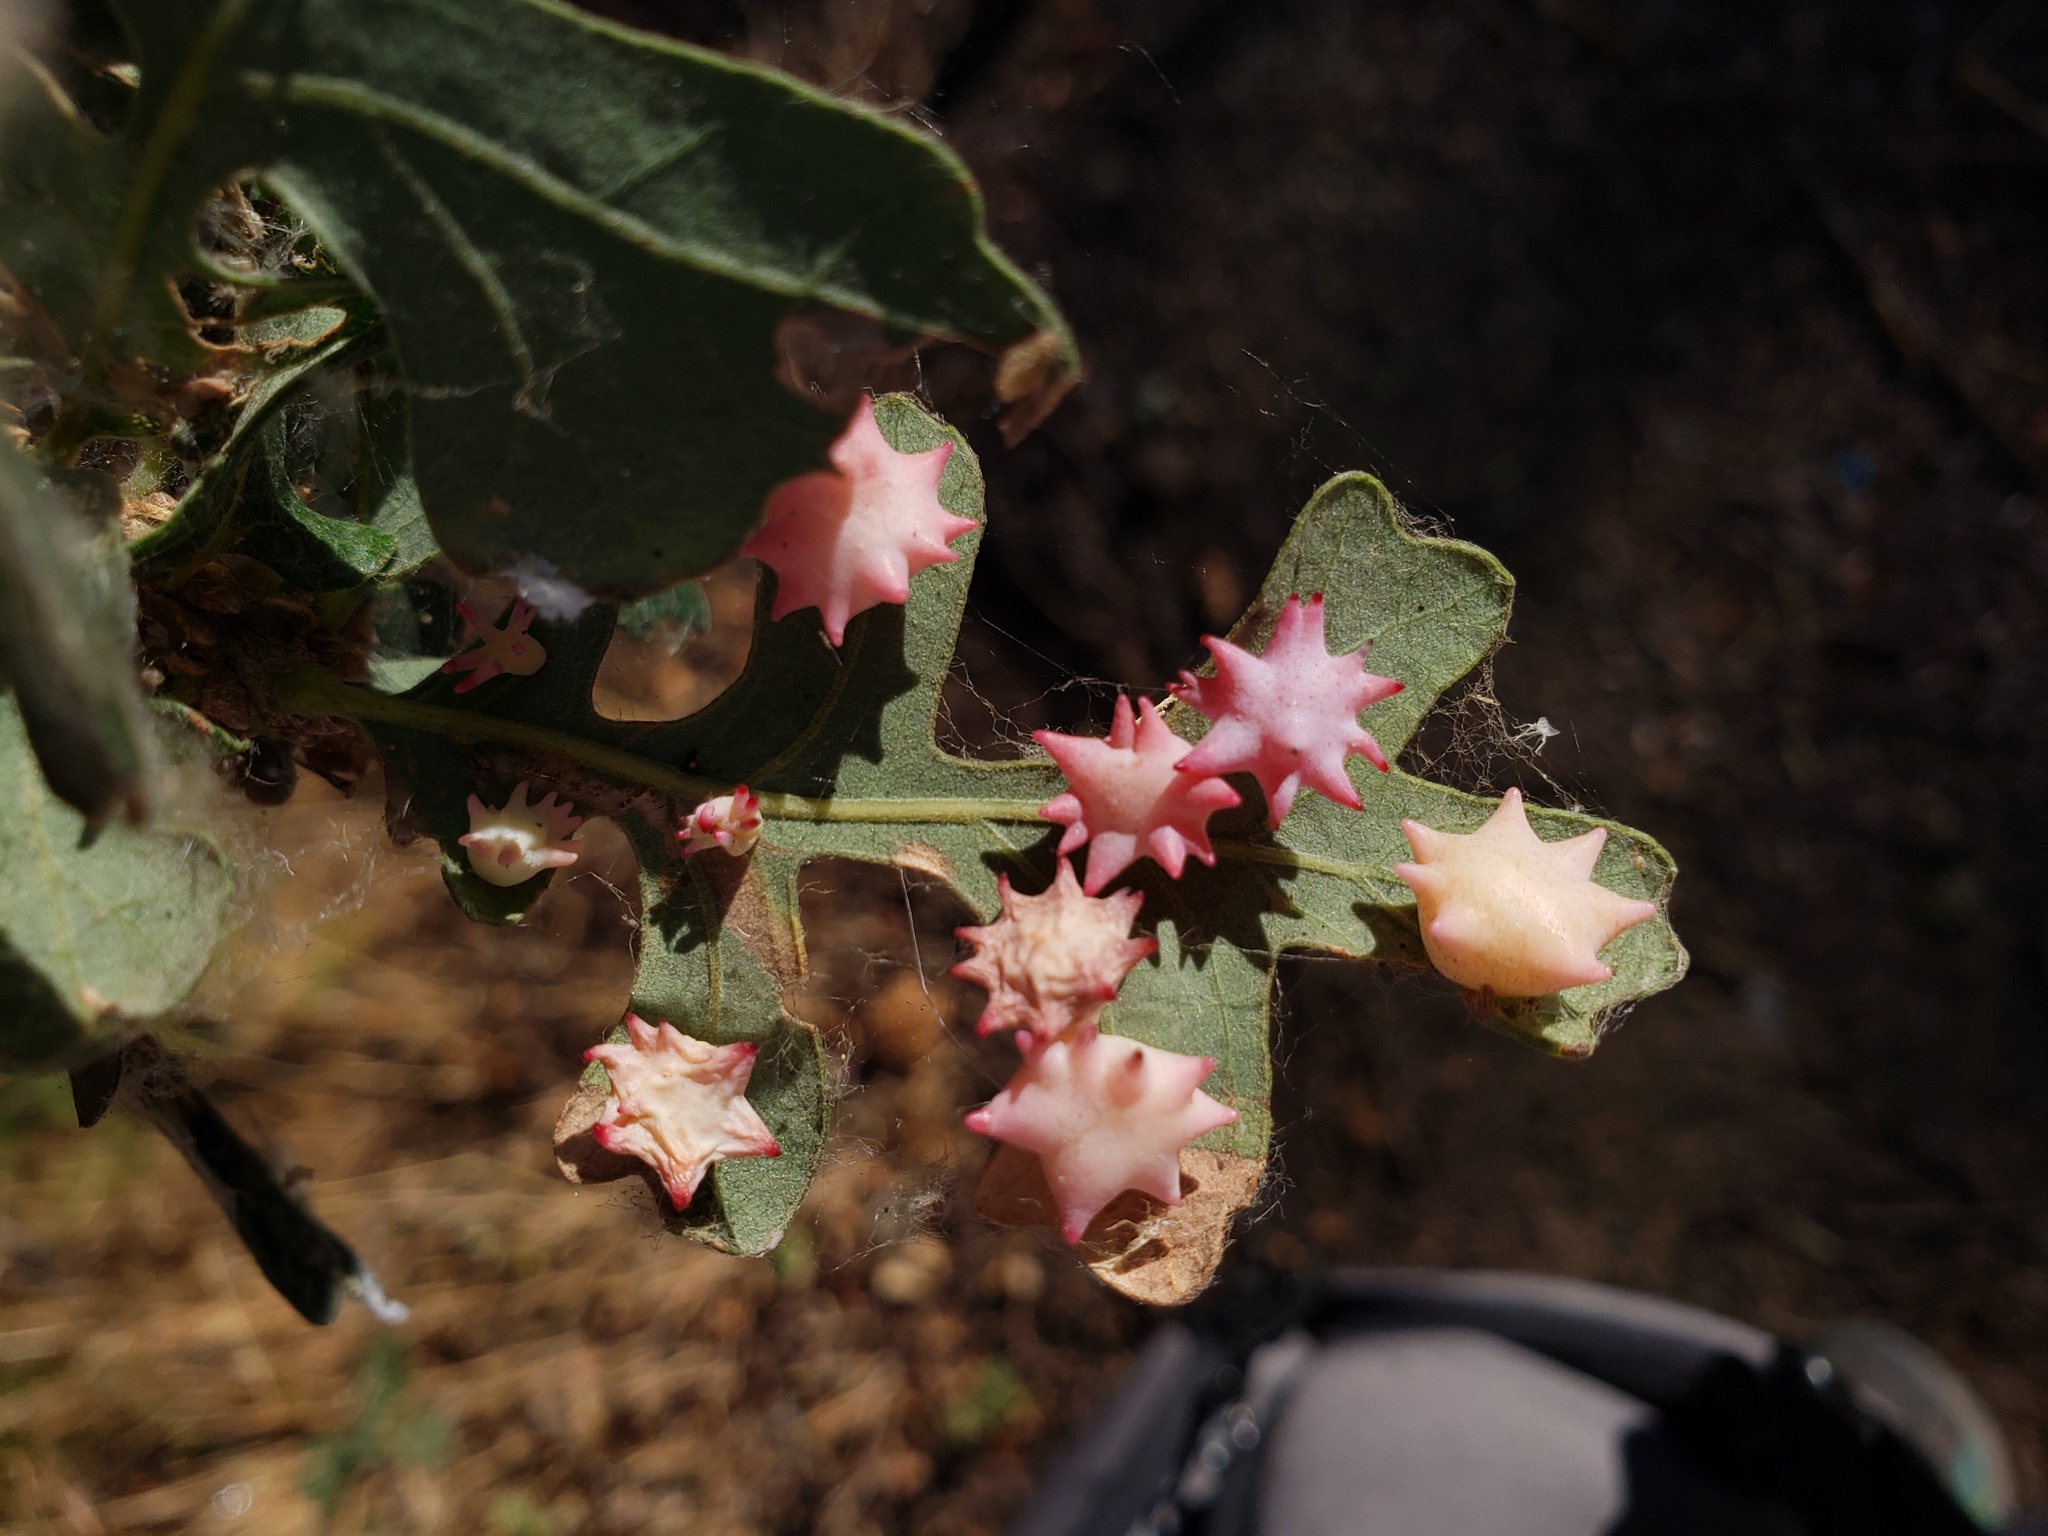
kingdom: Animalia
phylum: Arthropoda
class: Insecta
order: Hymenoptera
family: Cynipidae
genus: Cynips
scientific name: Cynips douglasi
